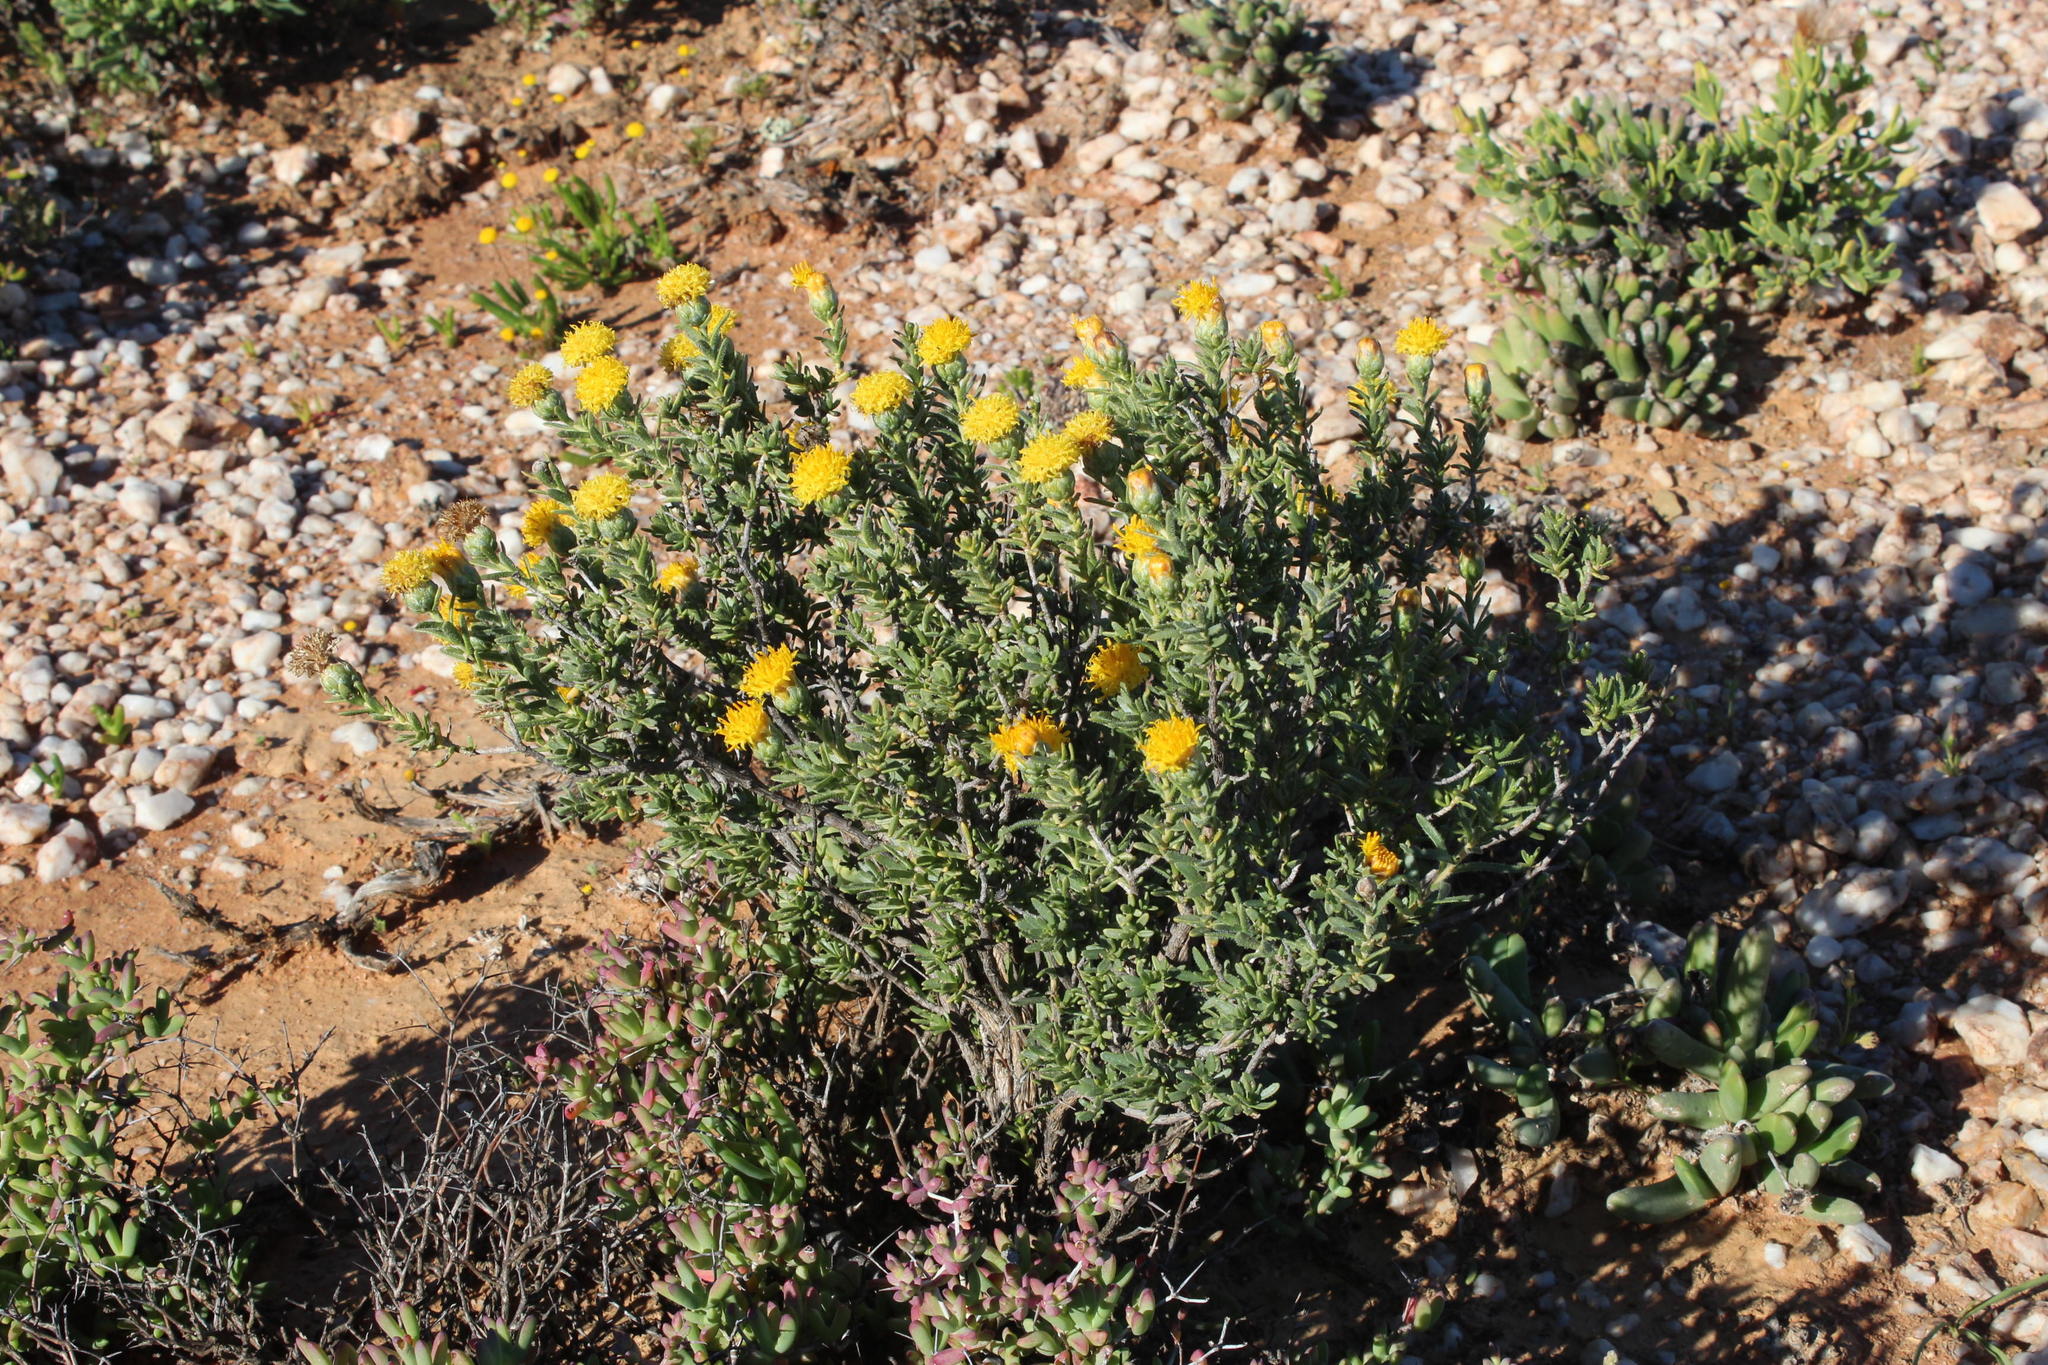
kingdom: Plantae
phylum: Tracheophyta
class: Magnoliopsida
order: Asterales
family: Asteraceae
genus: Pteronia
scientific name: Pteronia villosa
